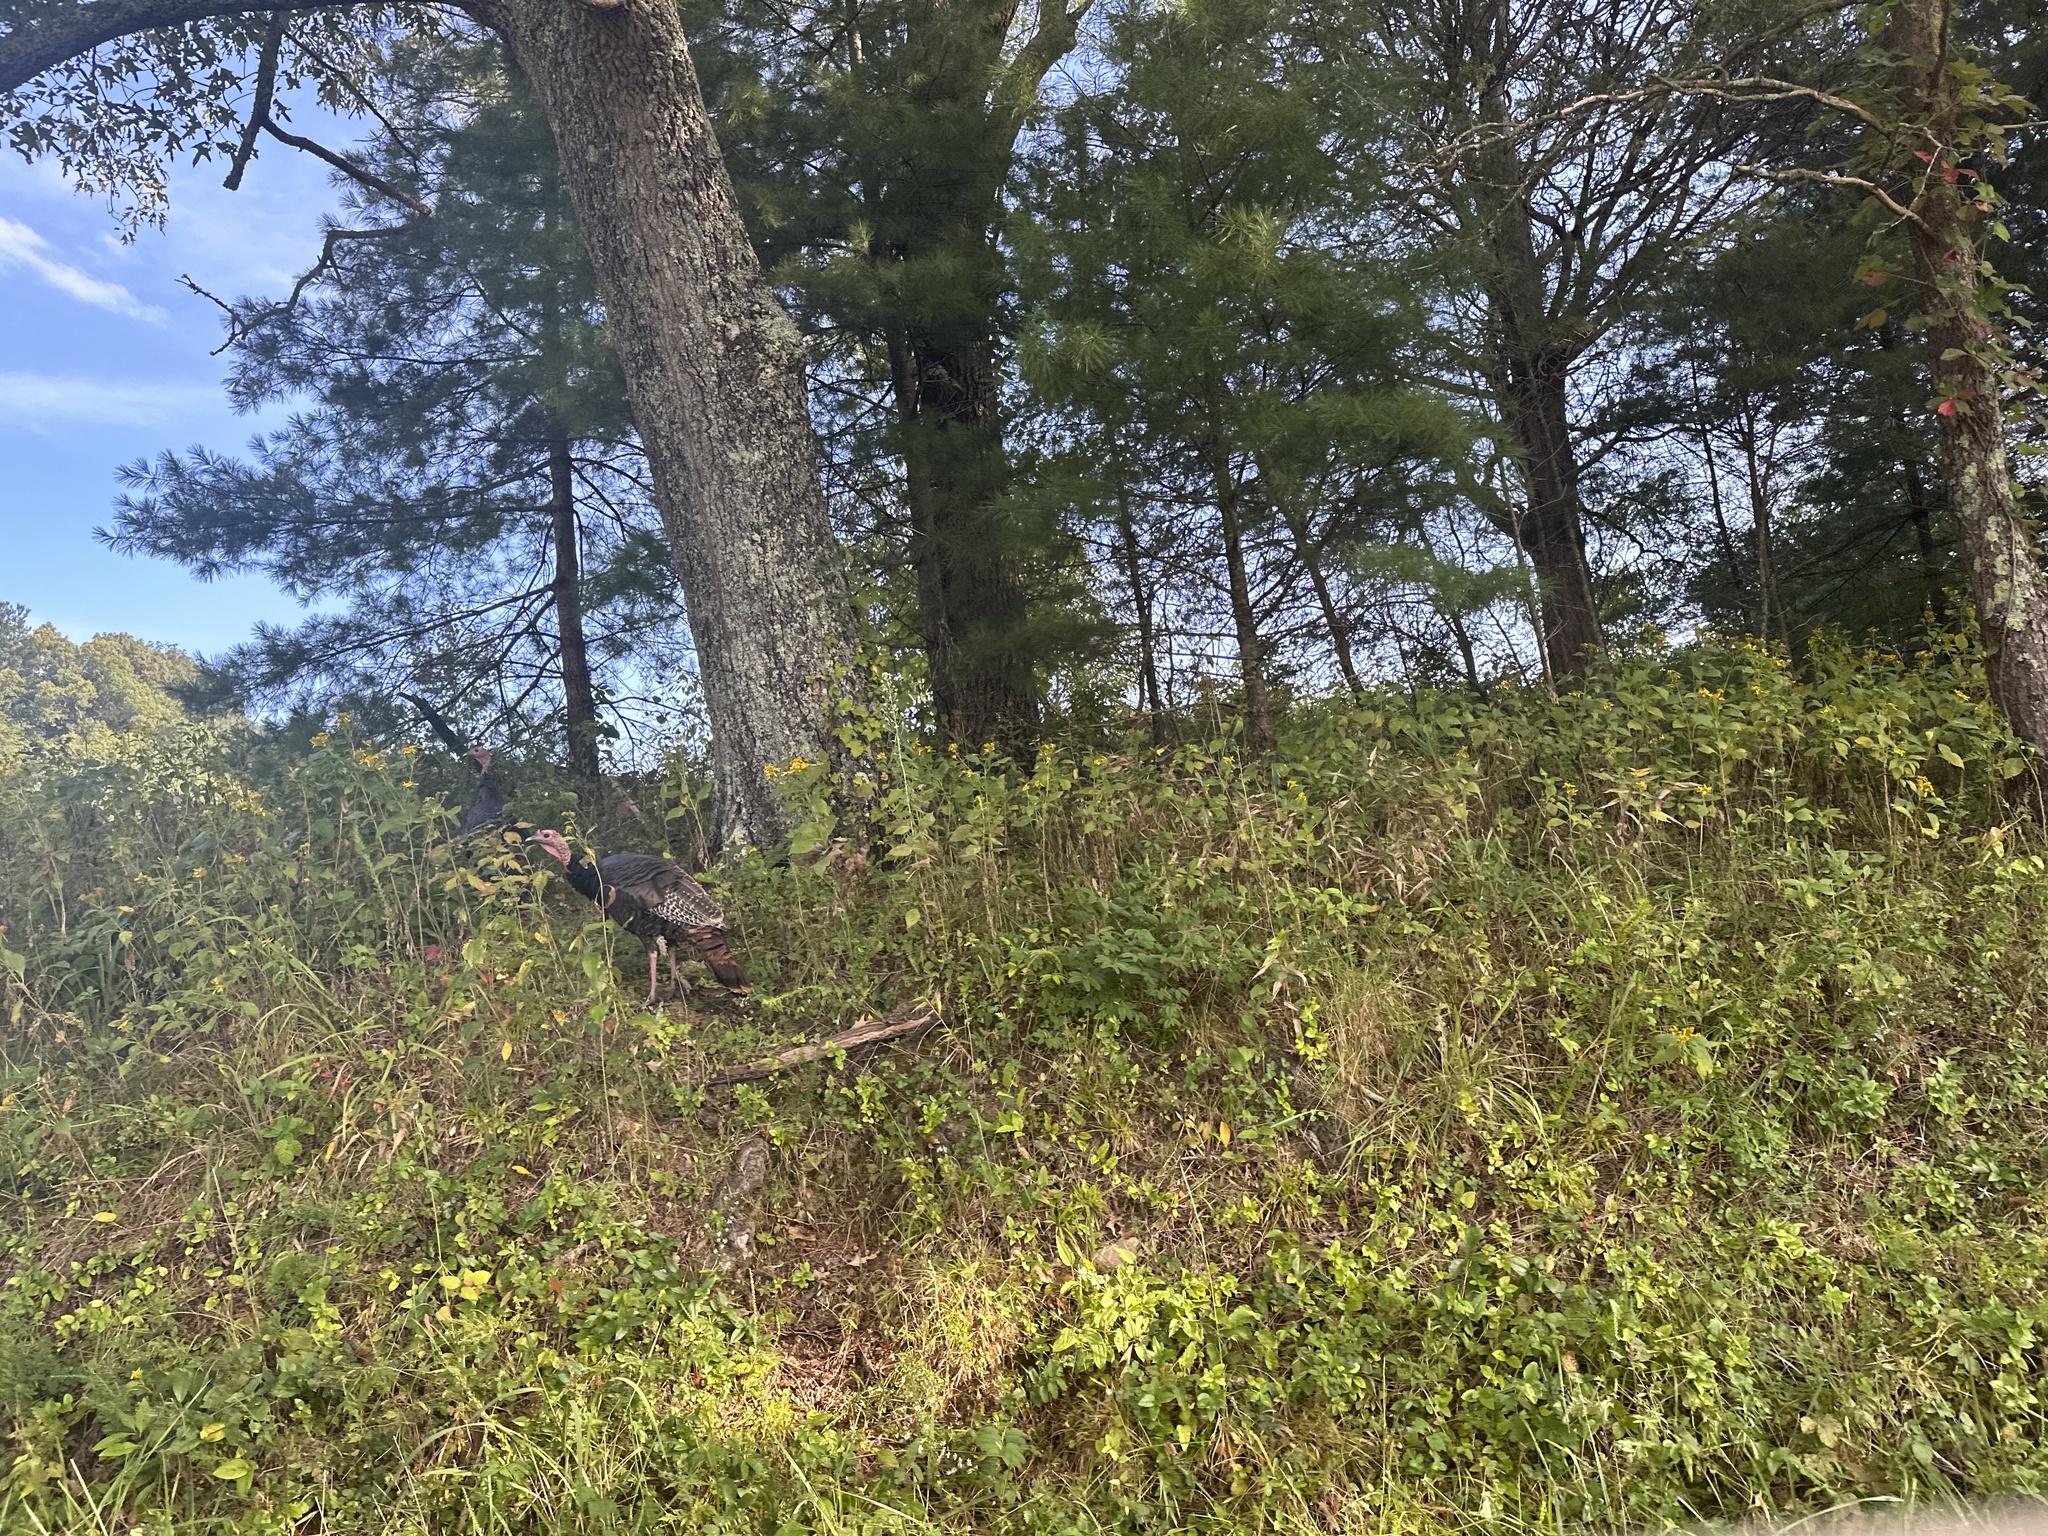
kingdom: Animalia
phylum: Chordata
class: Aves
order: Galliformes
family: Phasianidae
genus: Meleagris
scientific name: Meleagris gallopavo
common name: Wild turkey
